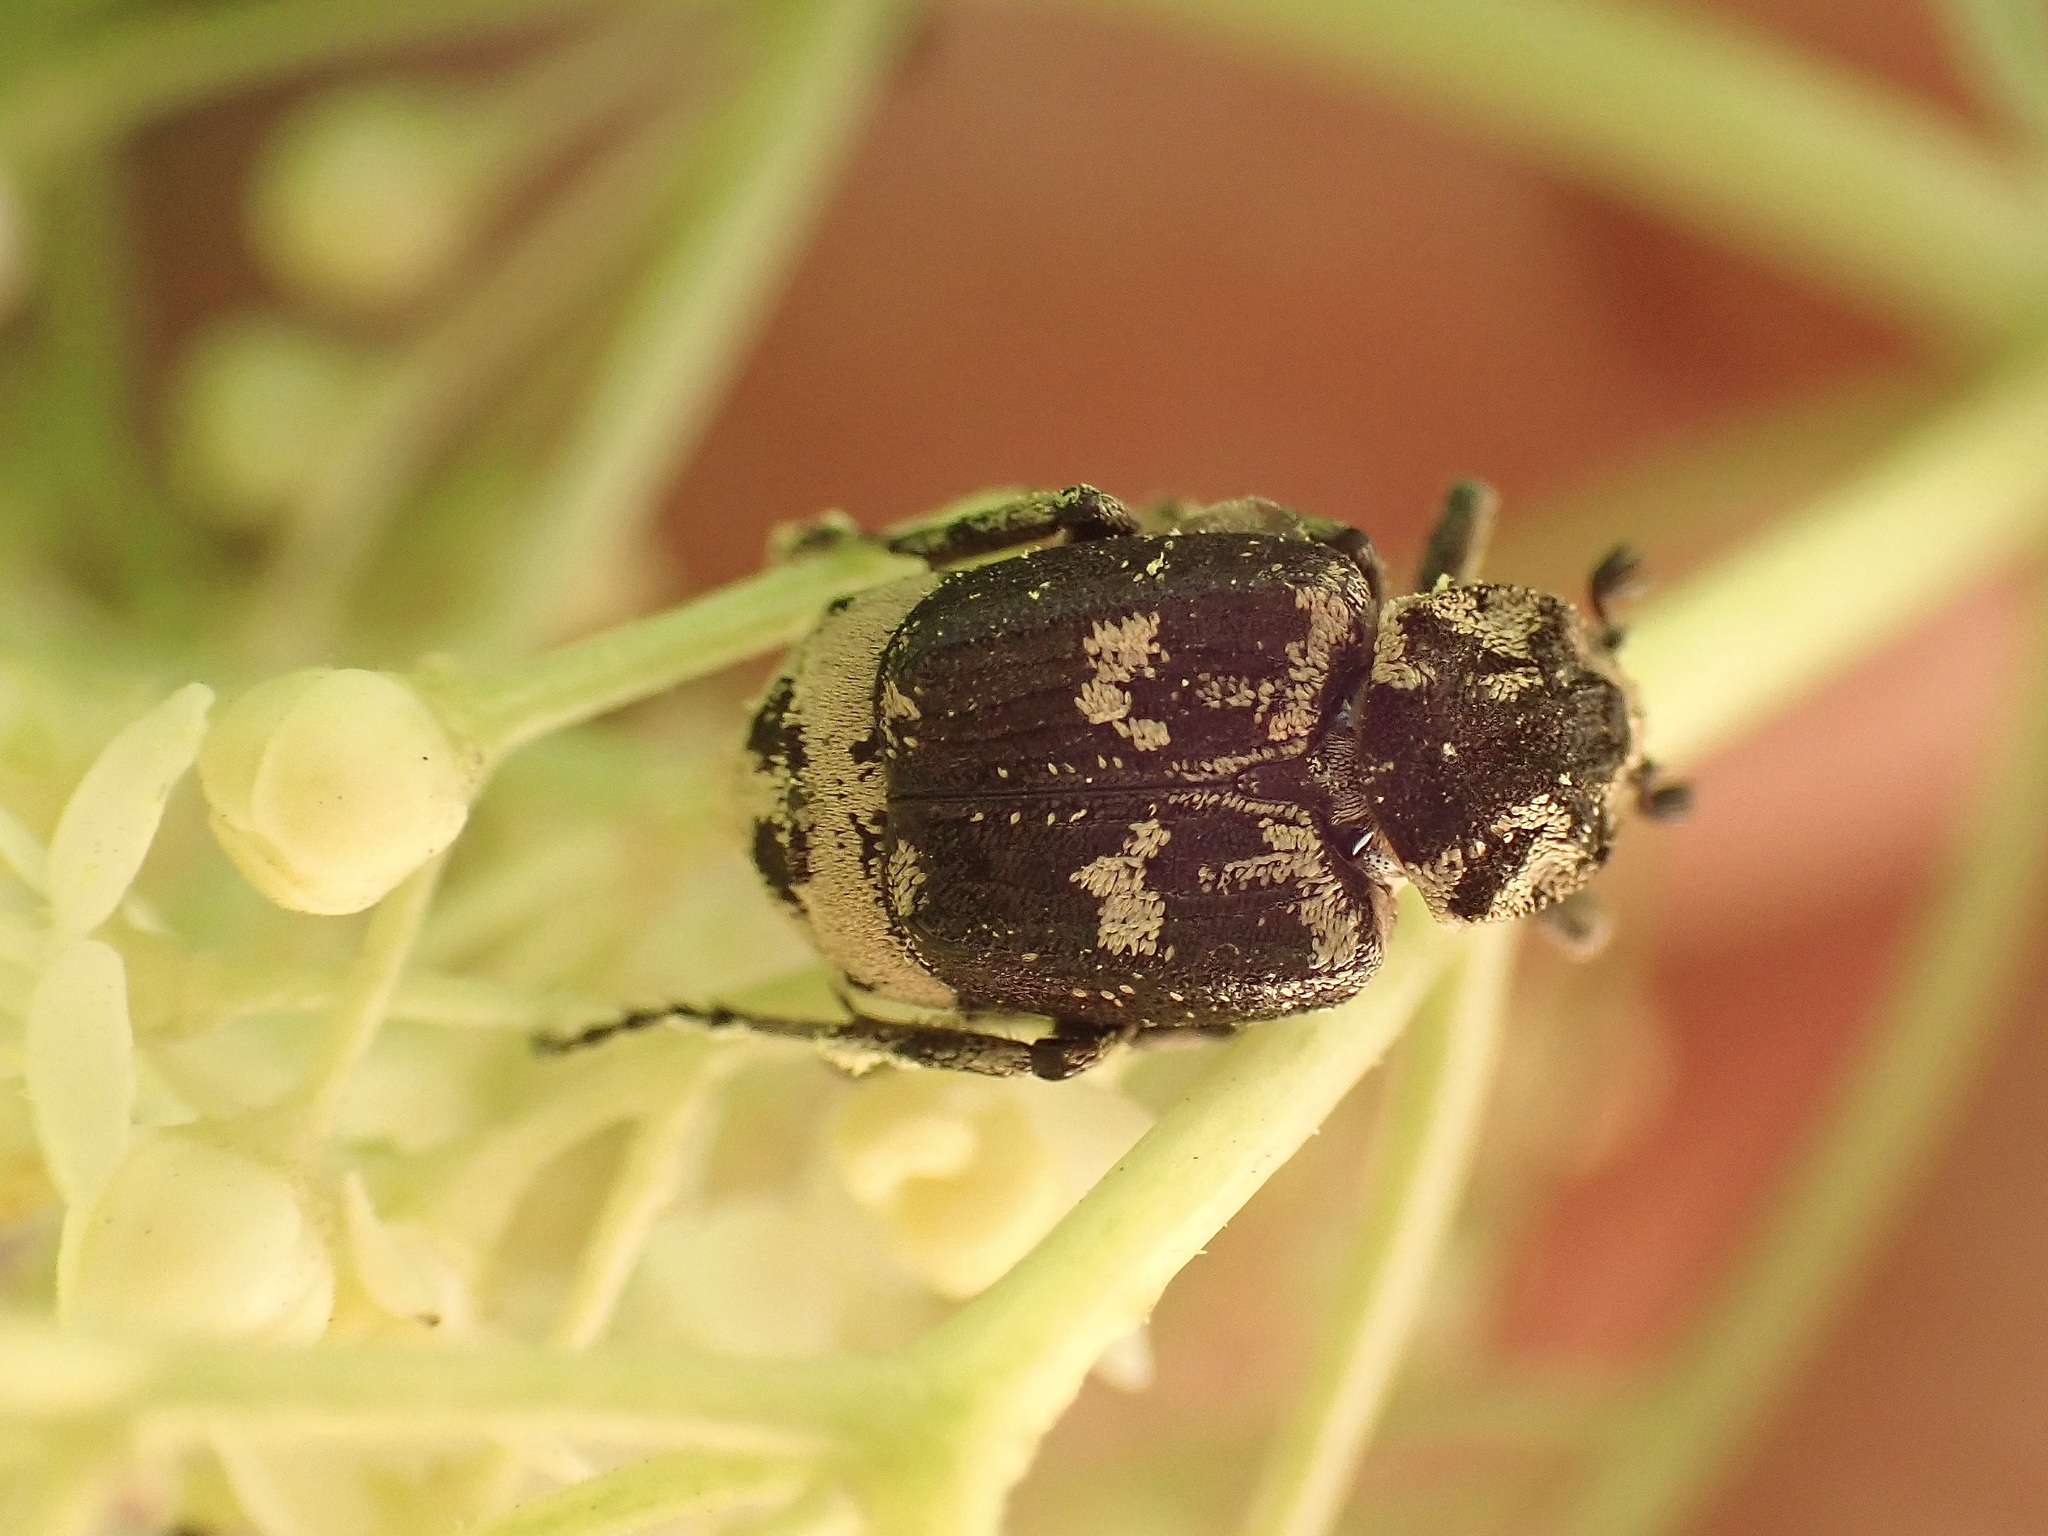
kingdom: Animalia
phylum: Arthropoda
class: Insecta
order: Coleoptera
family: Scarabaeidae
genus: Valgus
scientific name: Valgus hemipterus
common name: Bug flower chafer
